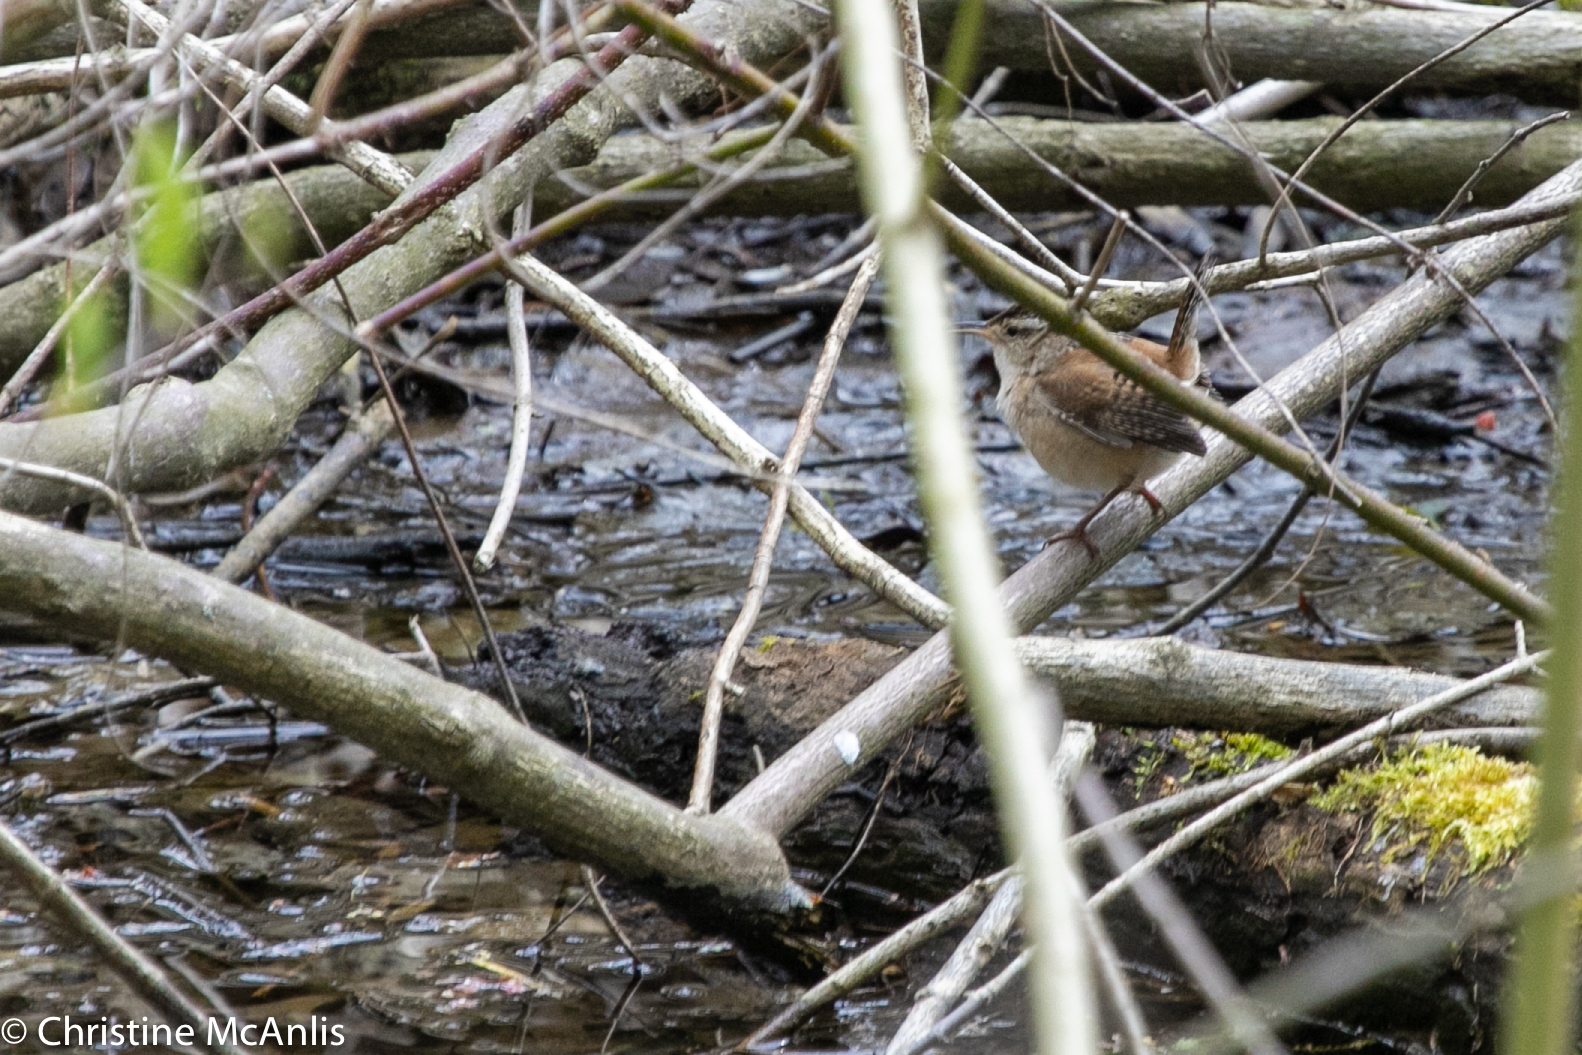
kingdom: Animalia
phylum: Chordata
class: Aves
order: Passeriformes
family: Troglodytidae
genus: Cistothorus
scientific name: Cistothorus palustris
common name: Marsh wren
